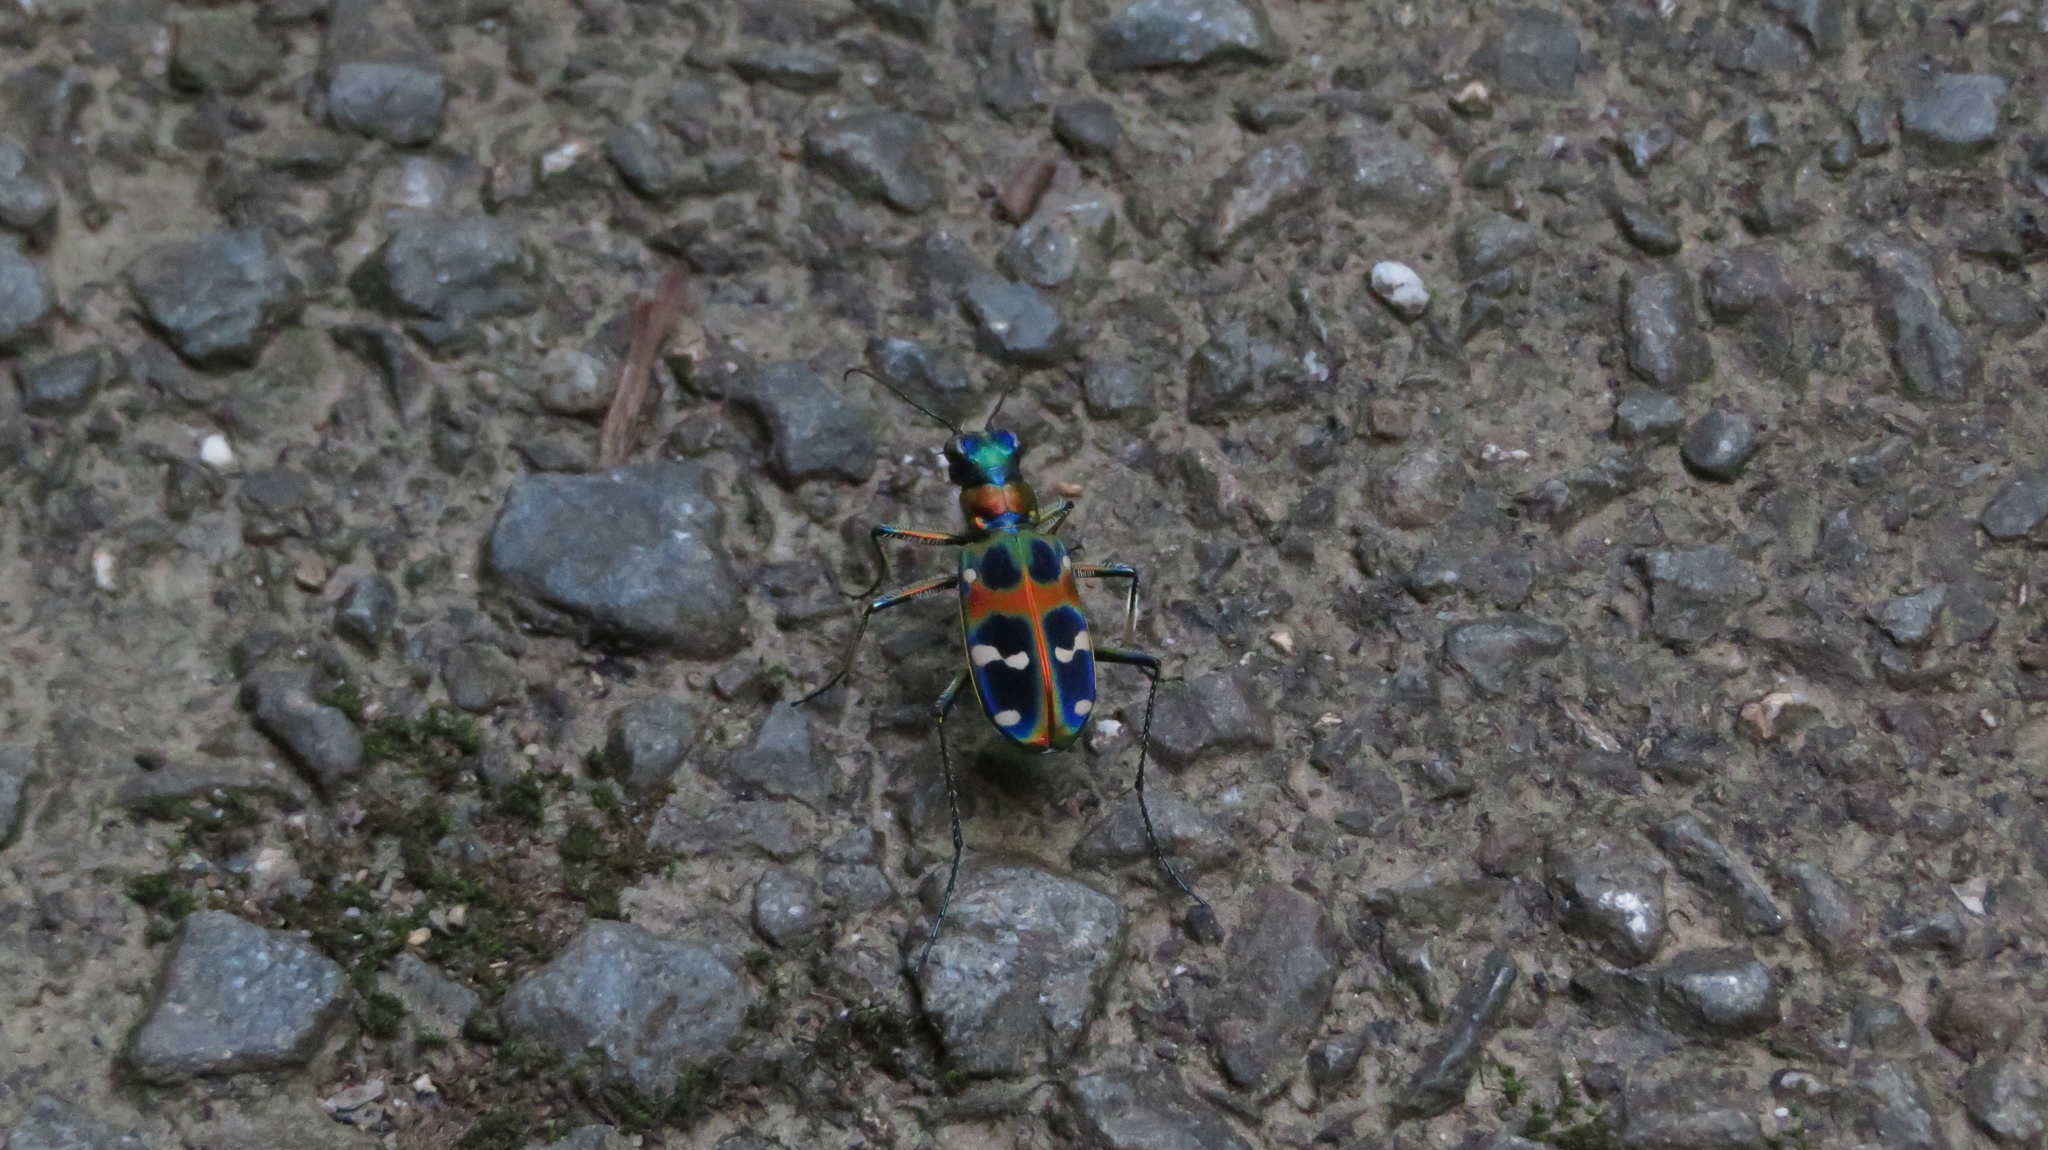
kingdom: Animalia
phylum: Arthropoda
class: Insecta
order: Coleoptera
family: Carabidae
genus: Cicindela
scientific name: Cicindela chinensis
